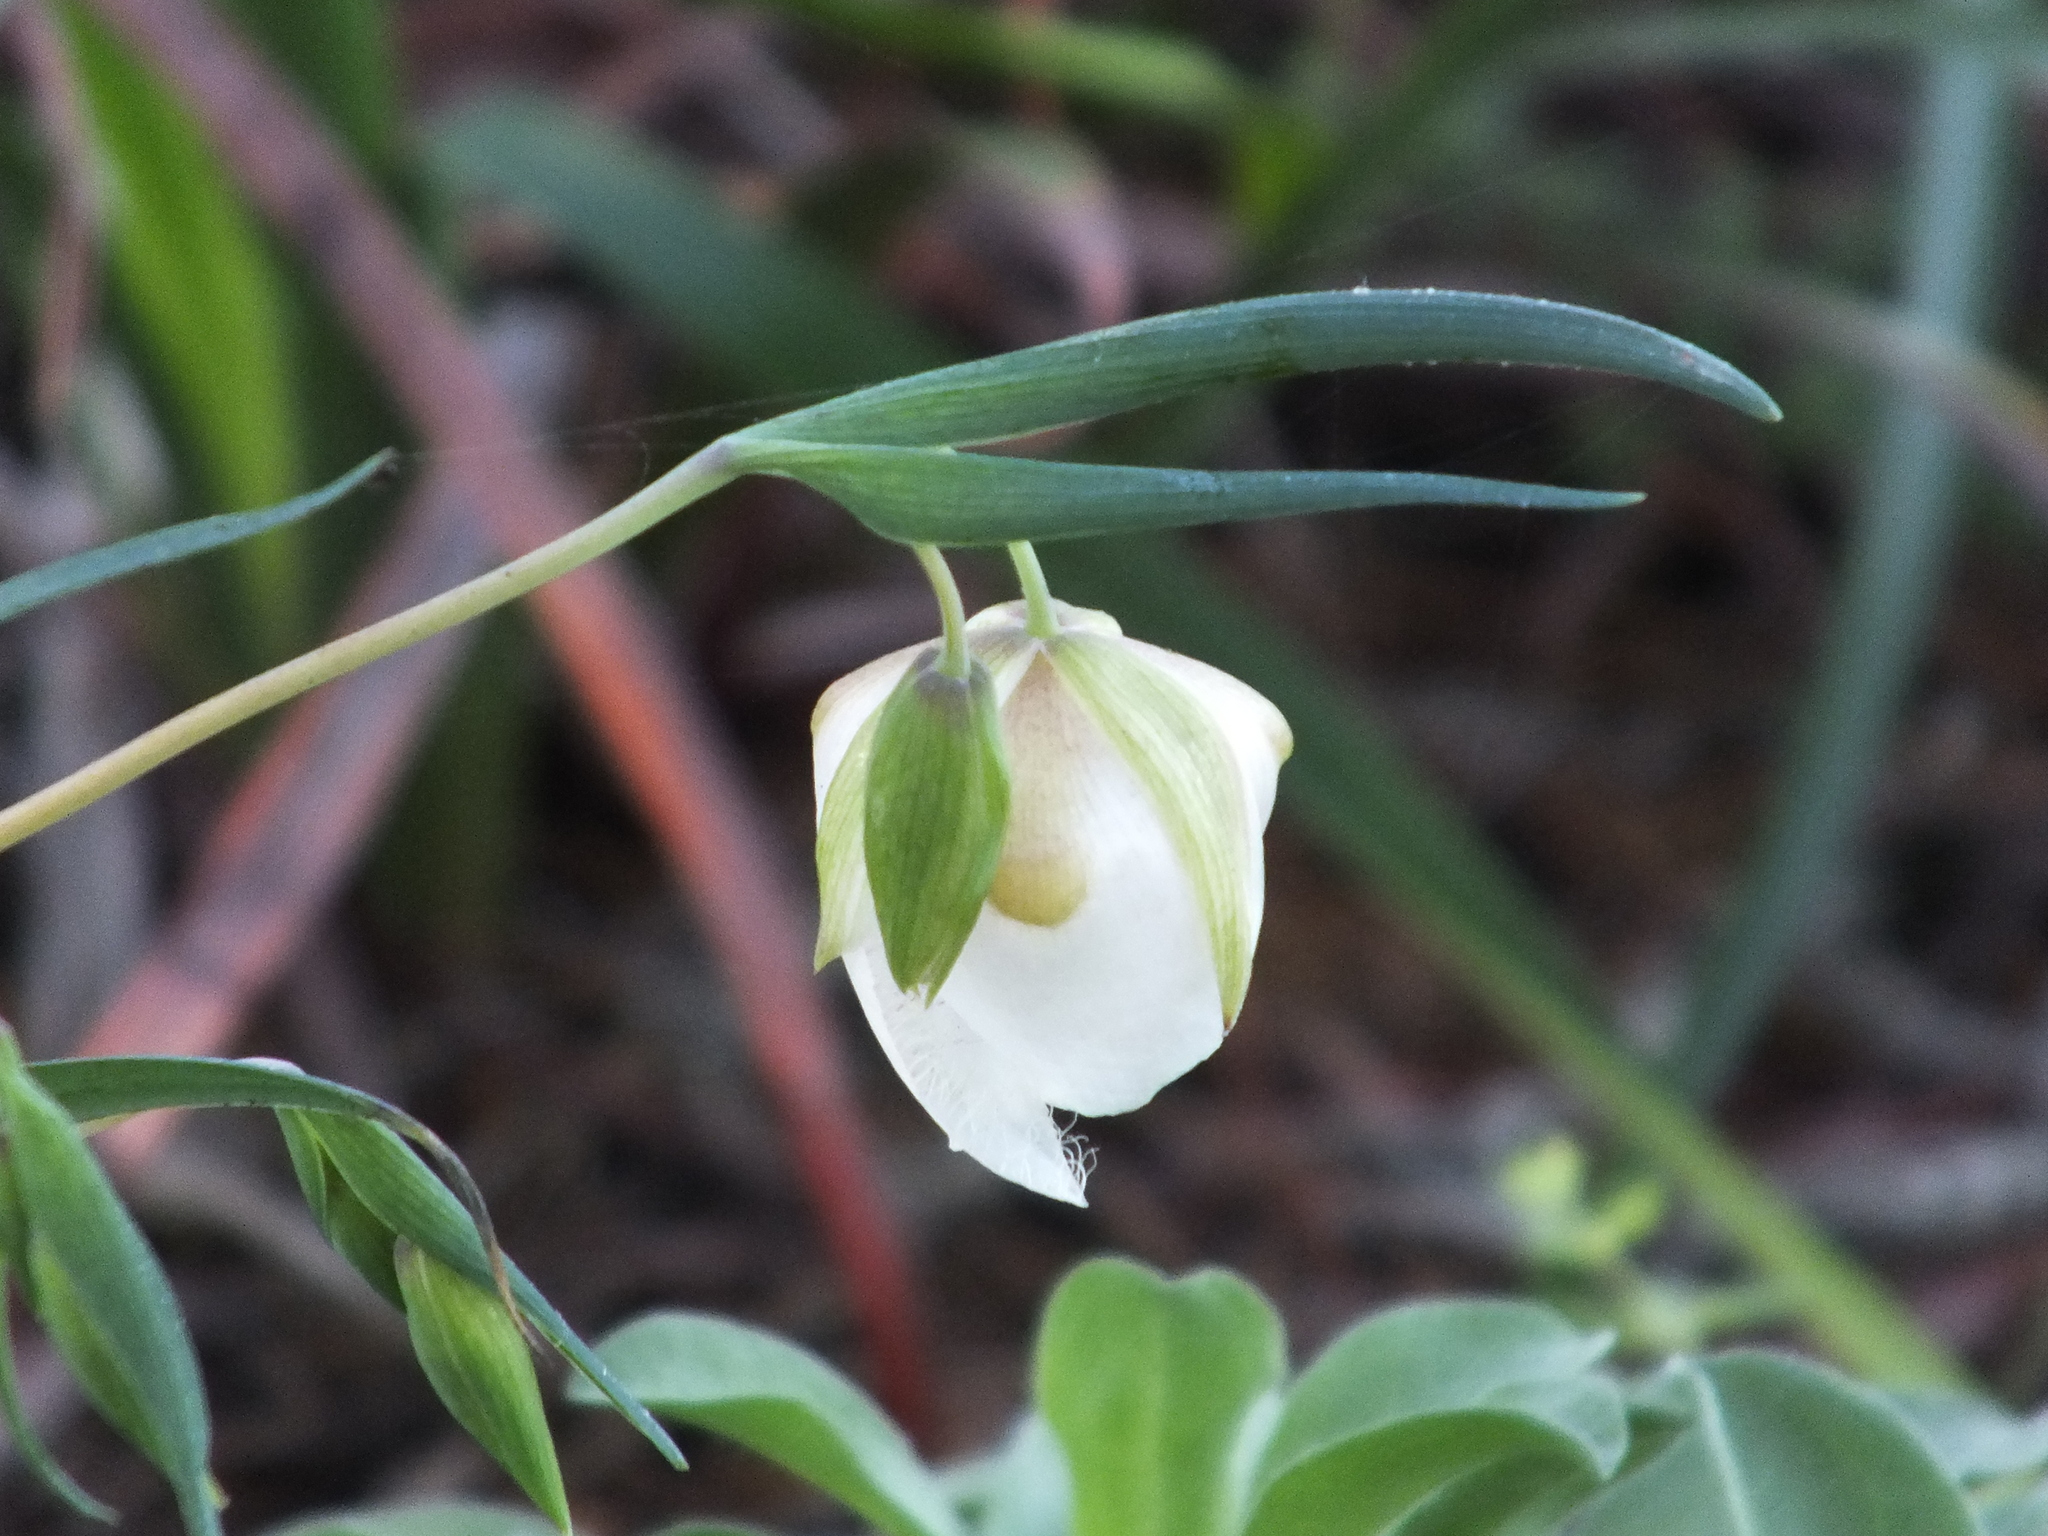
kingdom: Plantae
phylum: Tracheophyta
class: Liliopsida
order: Liliales
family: Liliaceae
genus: Calochortus
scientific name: Calochortus albus
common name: Fairy-lantern
